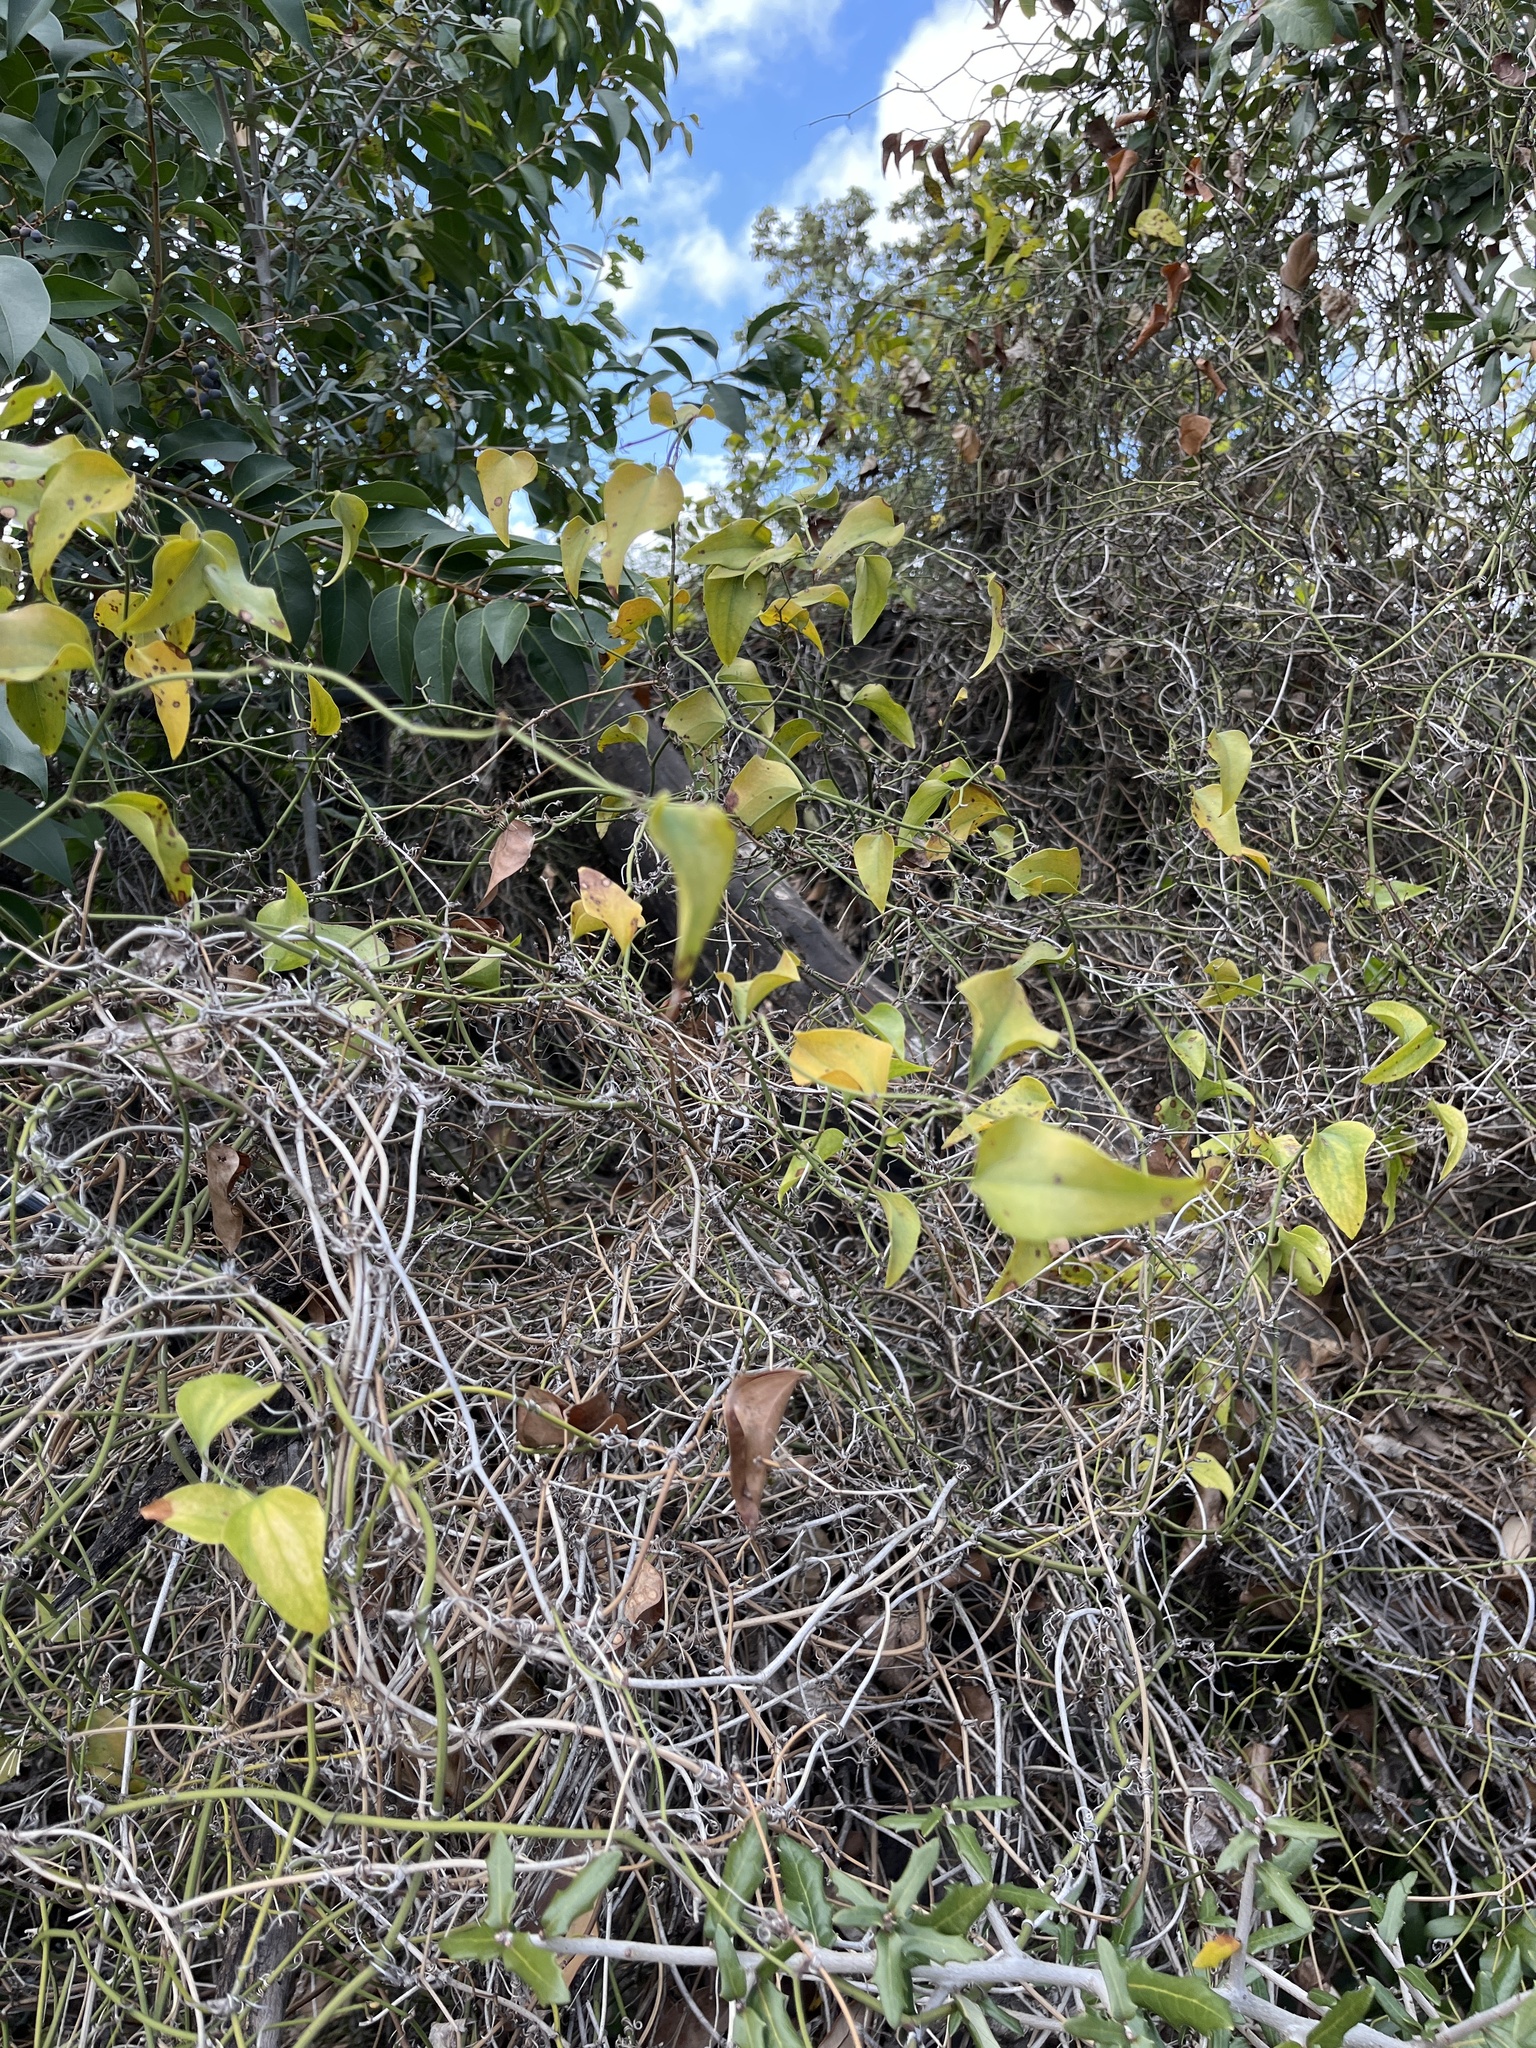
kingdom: Plantae
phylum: Tracheophyta
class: Liliopsida
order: Liliales
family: Smilacaceae
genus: Smilax
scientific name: Smilax bona-nox
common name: Catbrier
